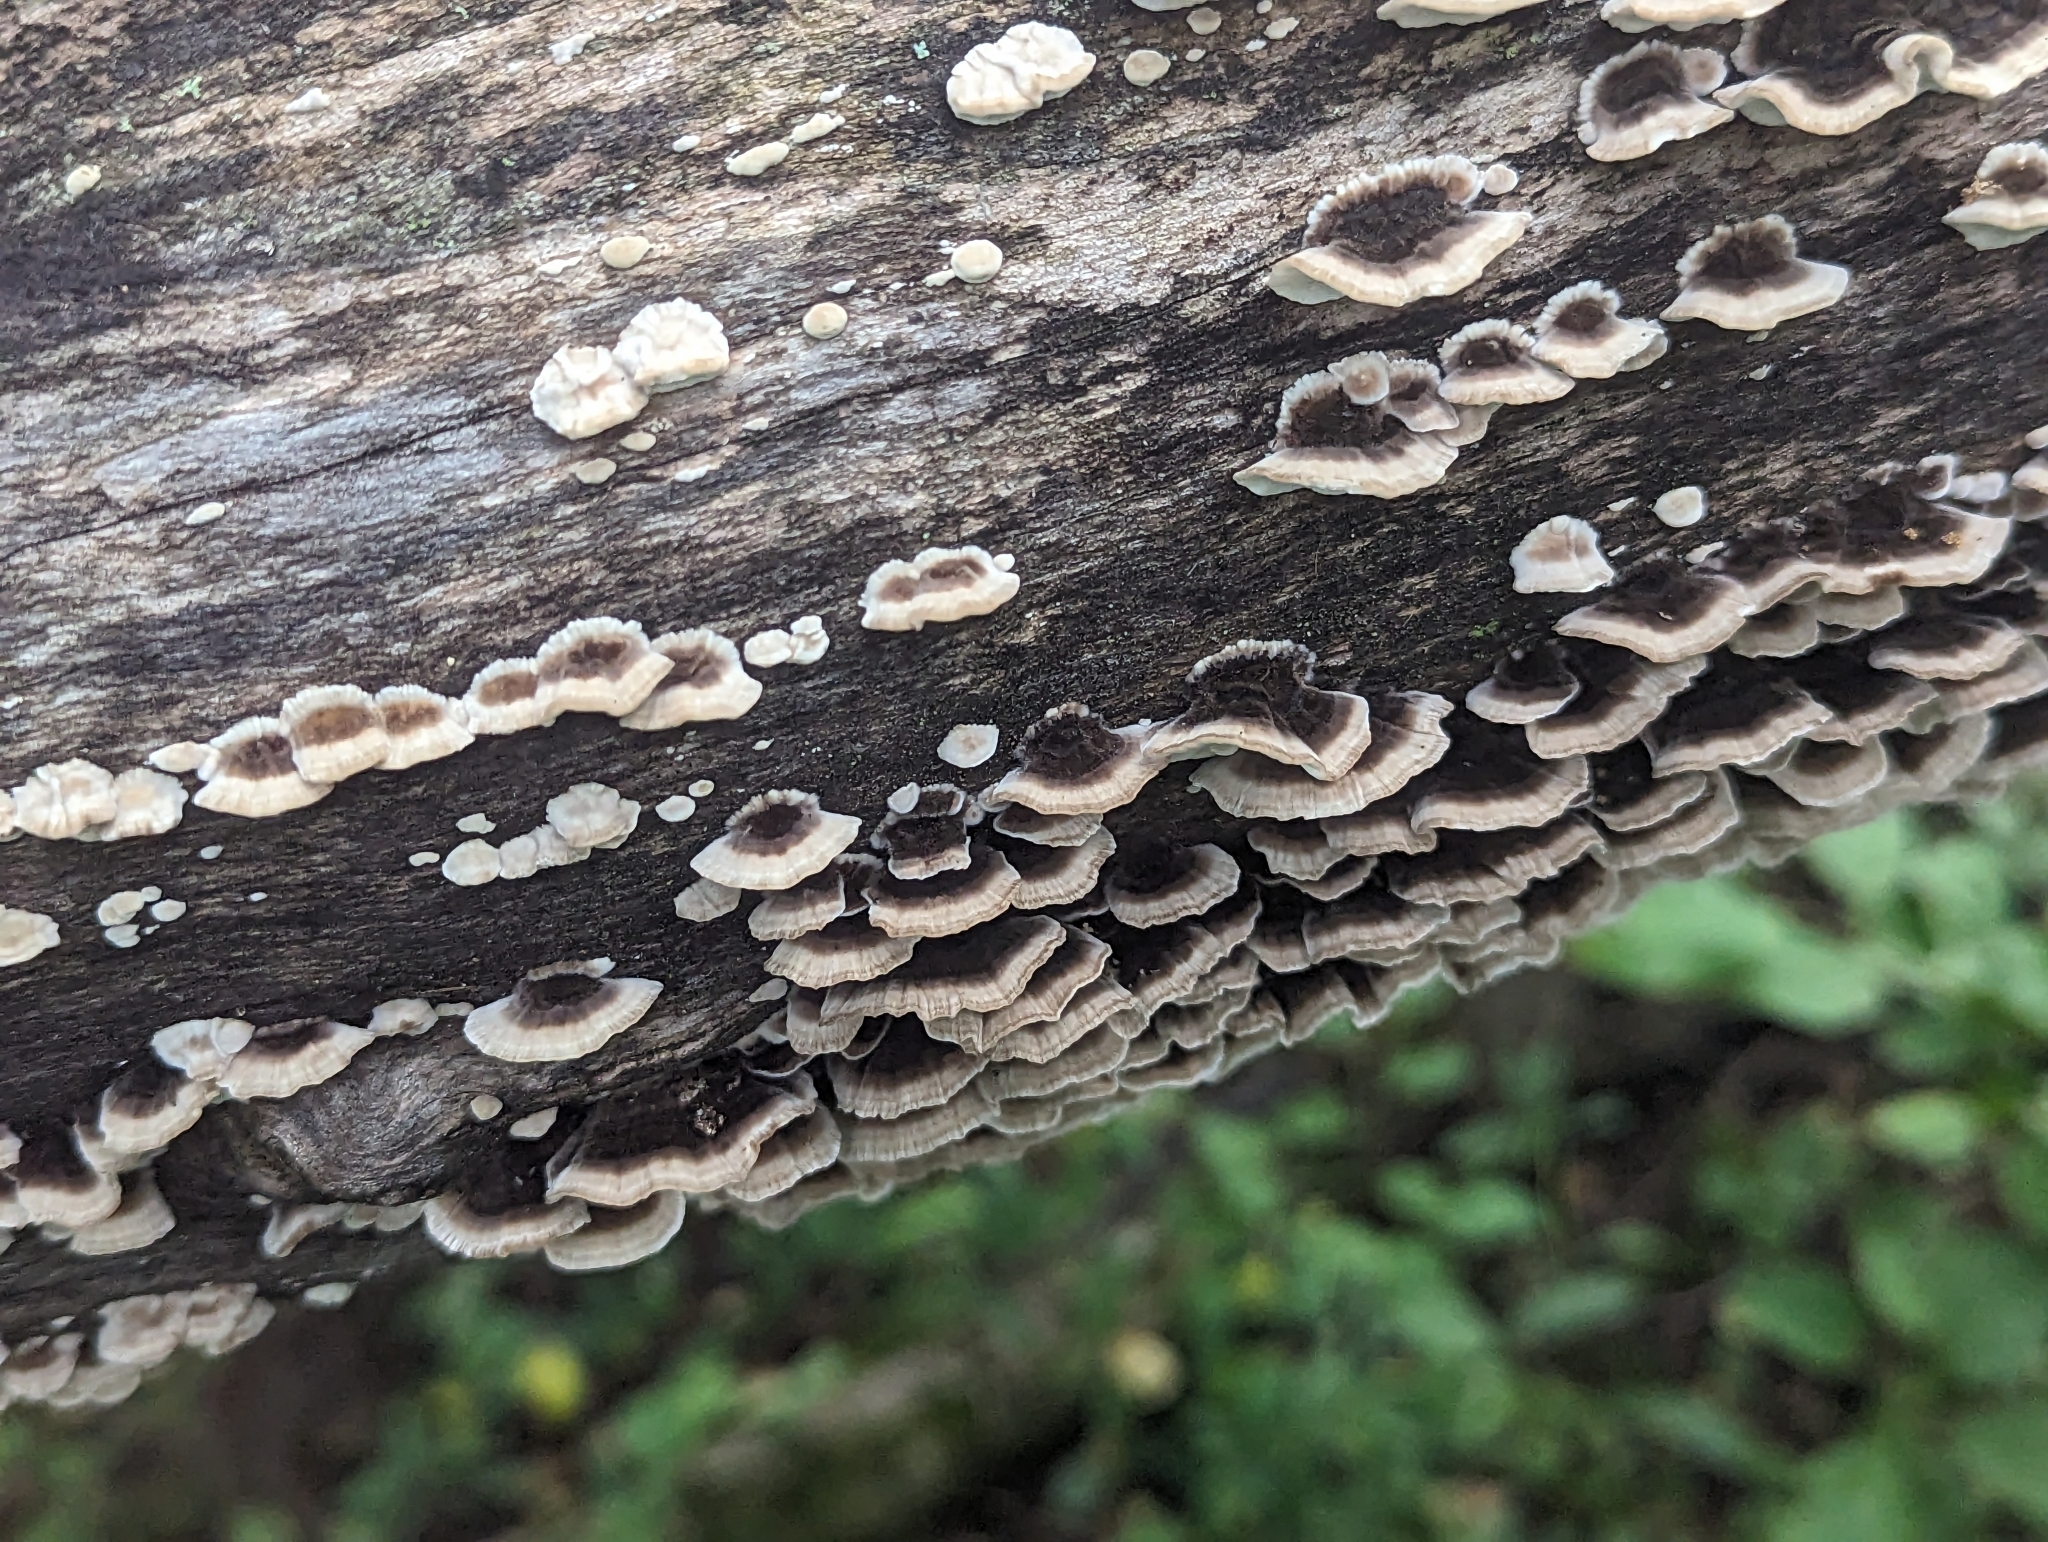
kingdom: Fungi
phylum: Basidiomycota
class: Agaricomycetes
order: Polyporales
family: Polyporaceae
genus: Trametes
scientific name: Trametes versicolor
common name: Turkeytail
